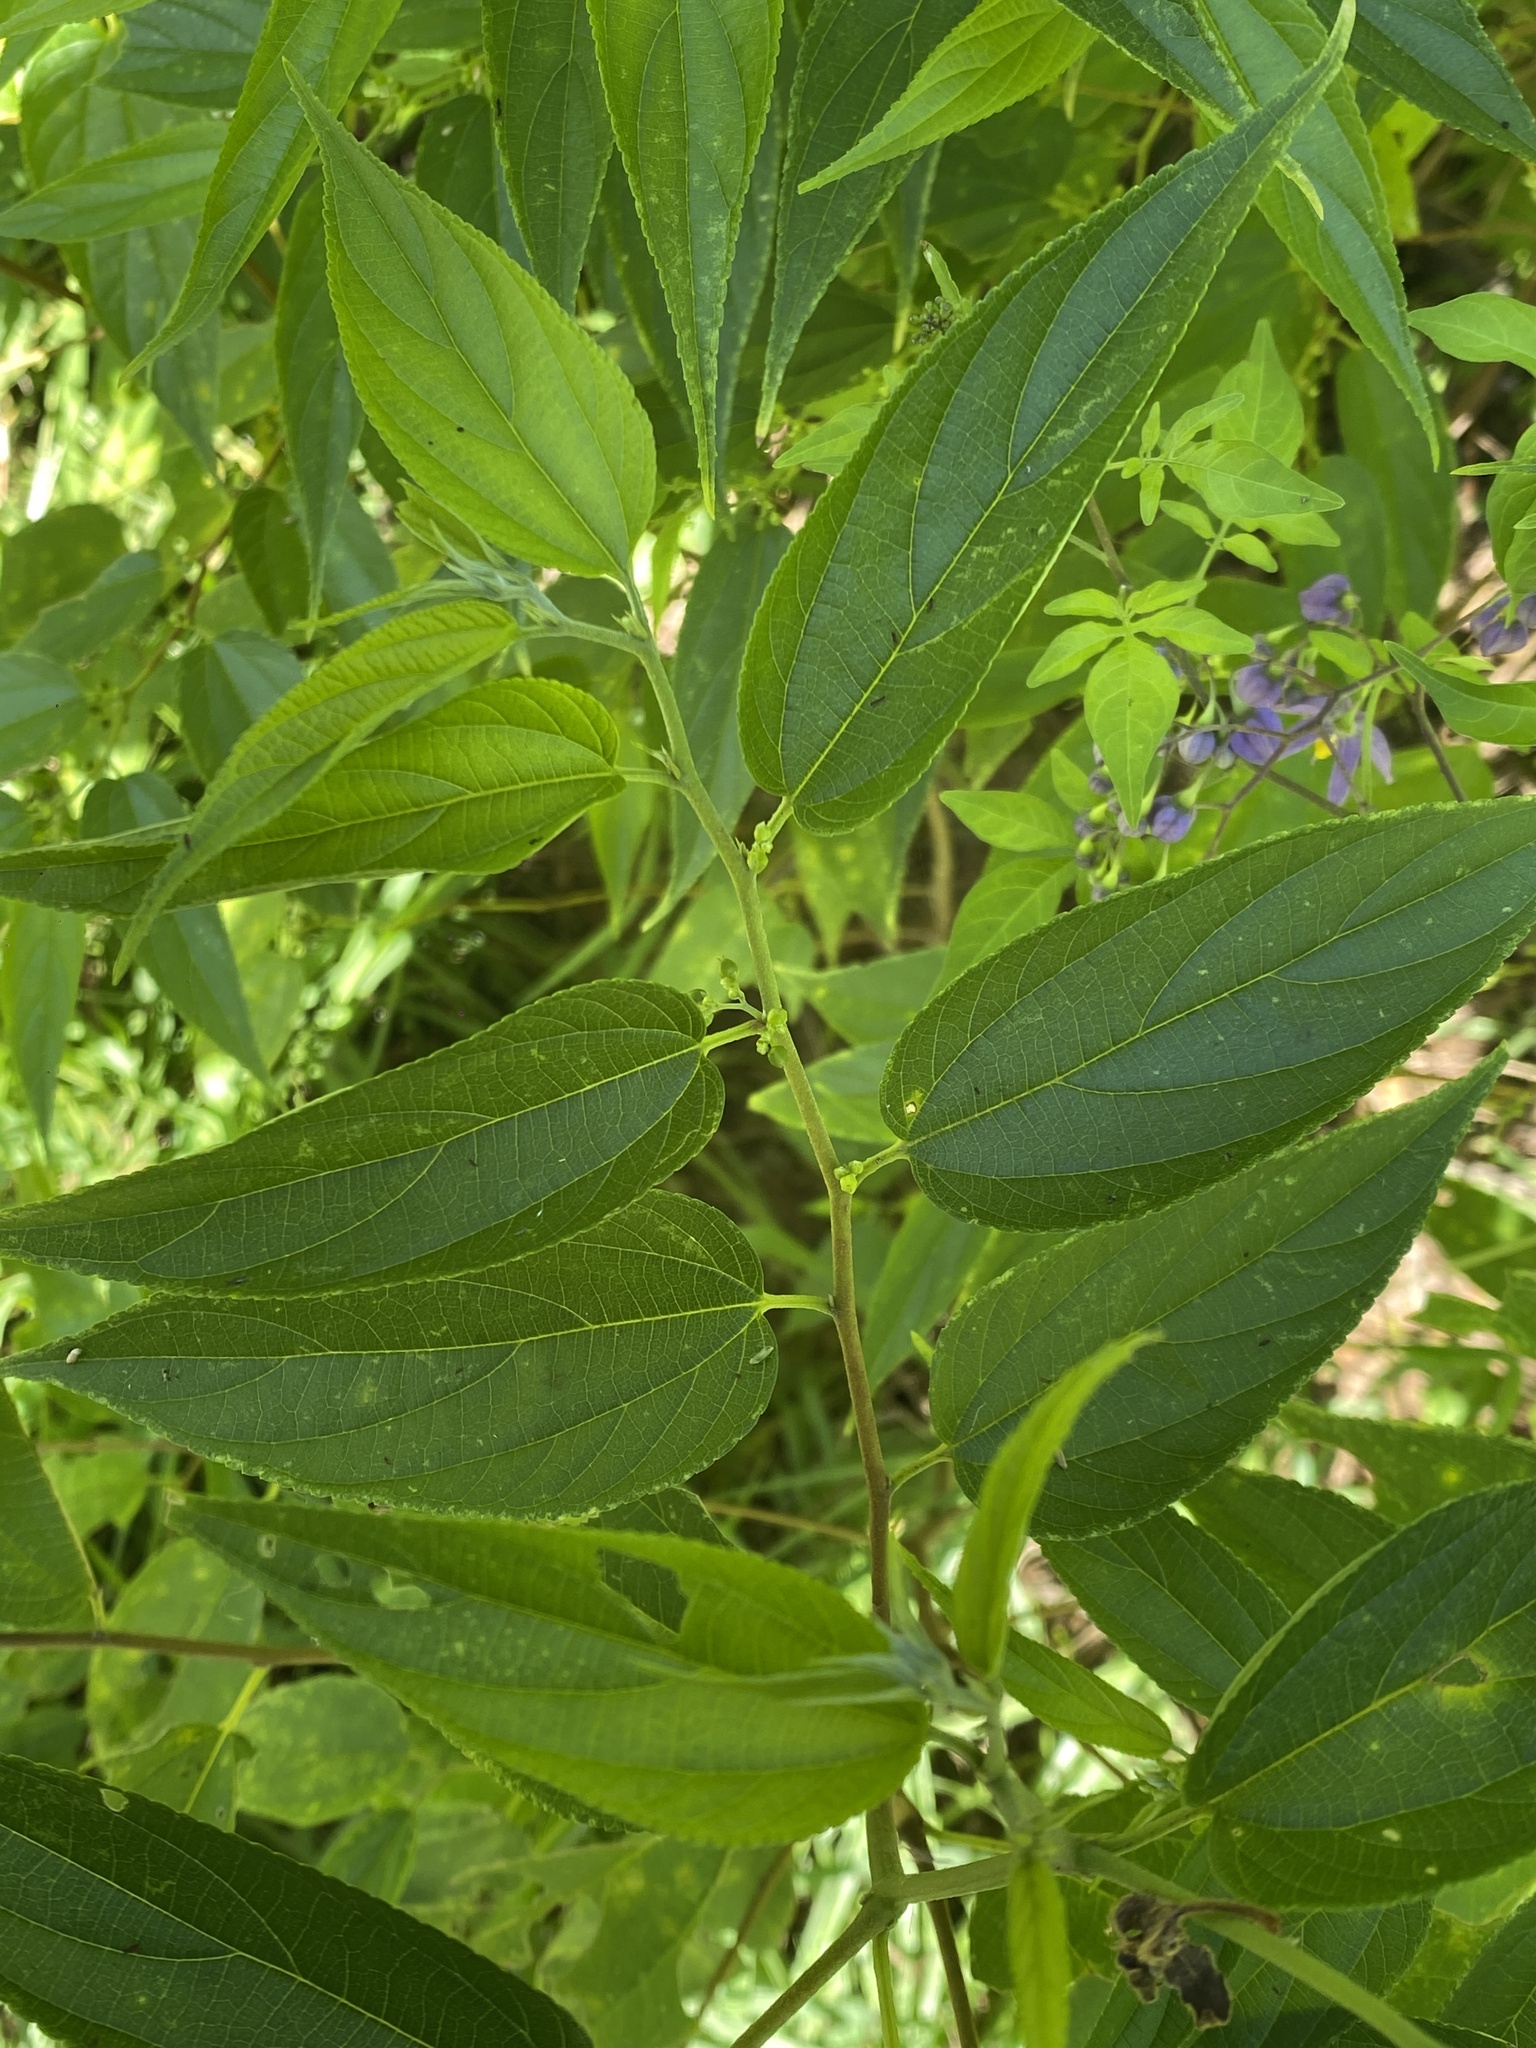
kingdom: Plantae
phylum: Tracheophyta
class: Magnoliopsida
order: Rosales
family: Cannabaceae
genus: Trema
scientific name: Trema tomentosum
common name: Peach-leaf-poisonbush
